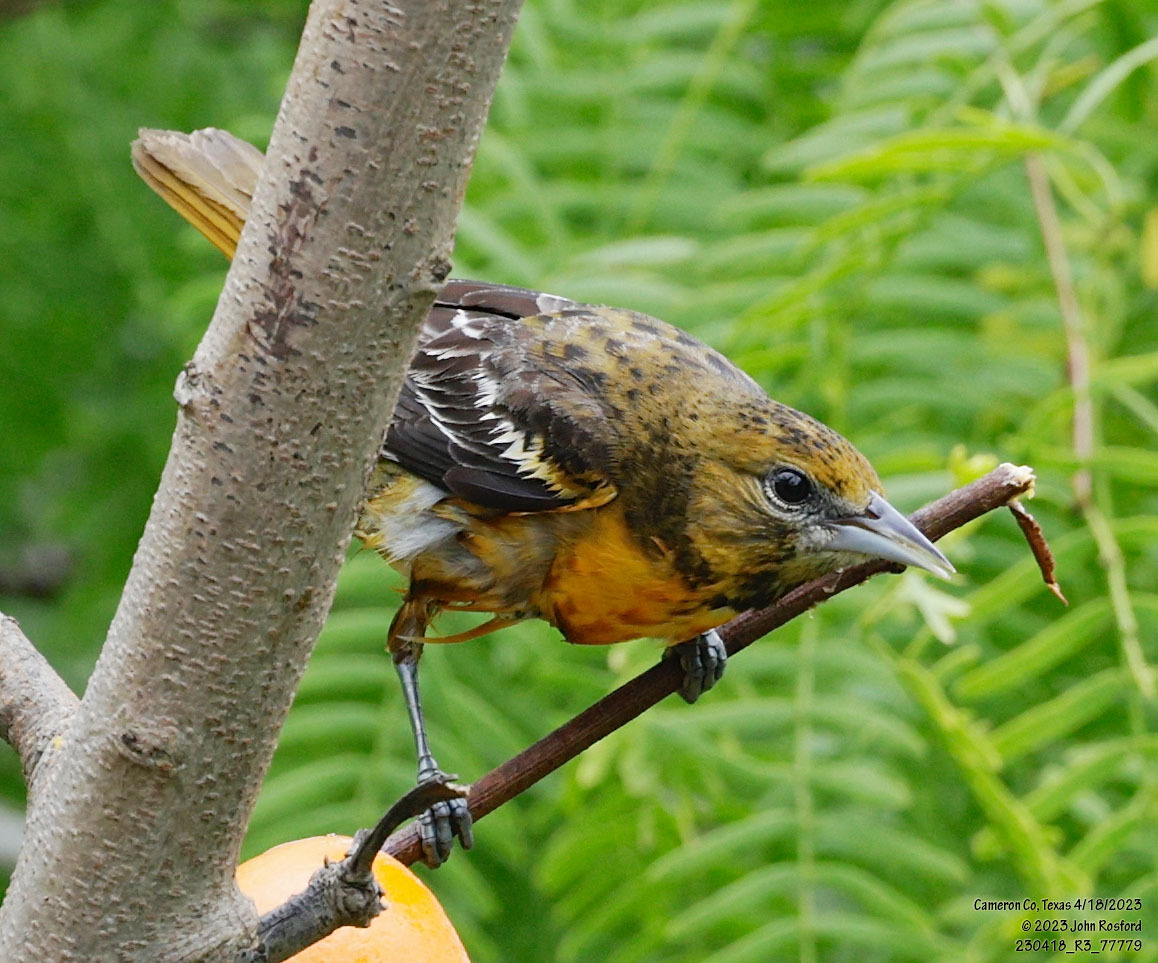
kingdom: Animalia
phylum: Chordata
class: Aves
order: Passeriformes
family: Icteridae
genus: Icterus
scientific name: Icterus galbula
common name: Baltimore oriole
